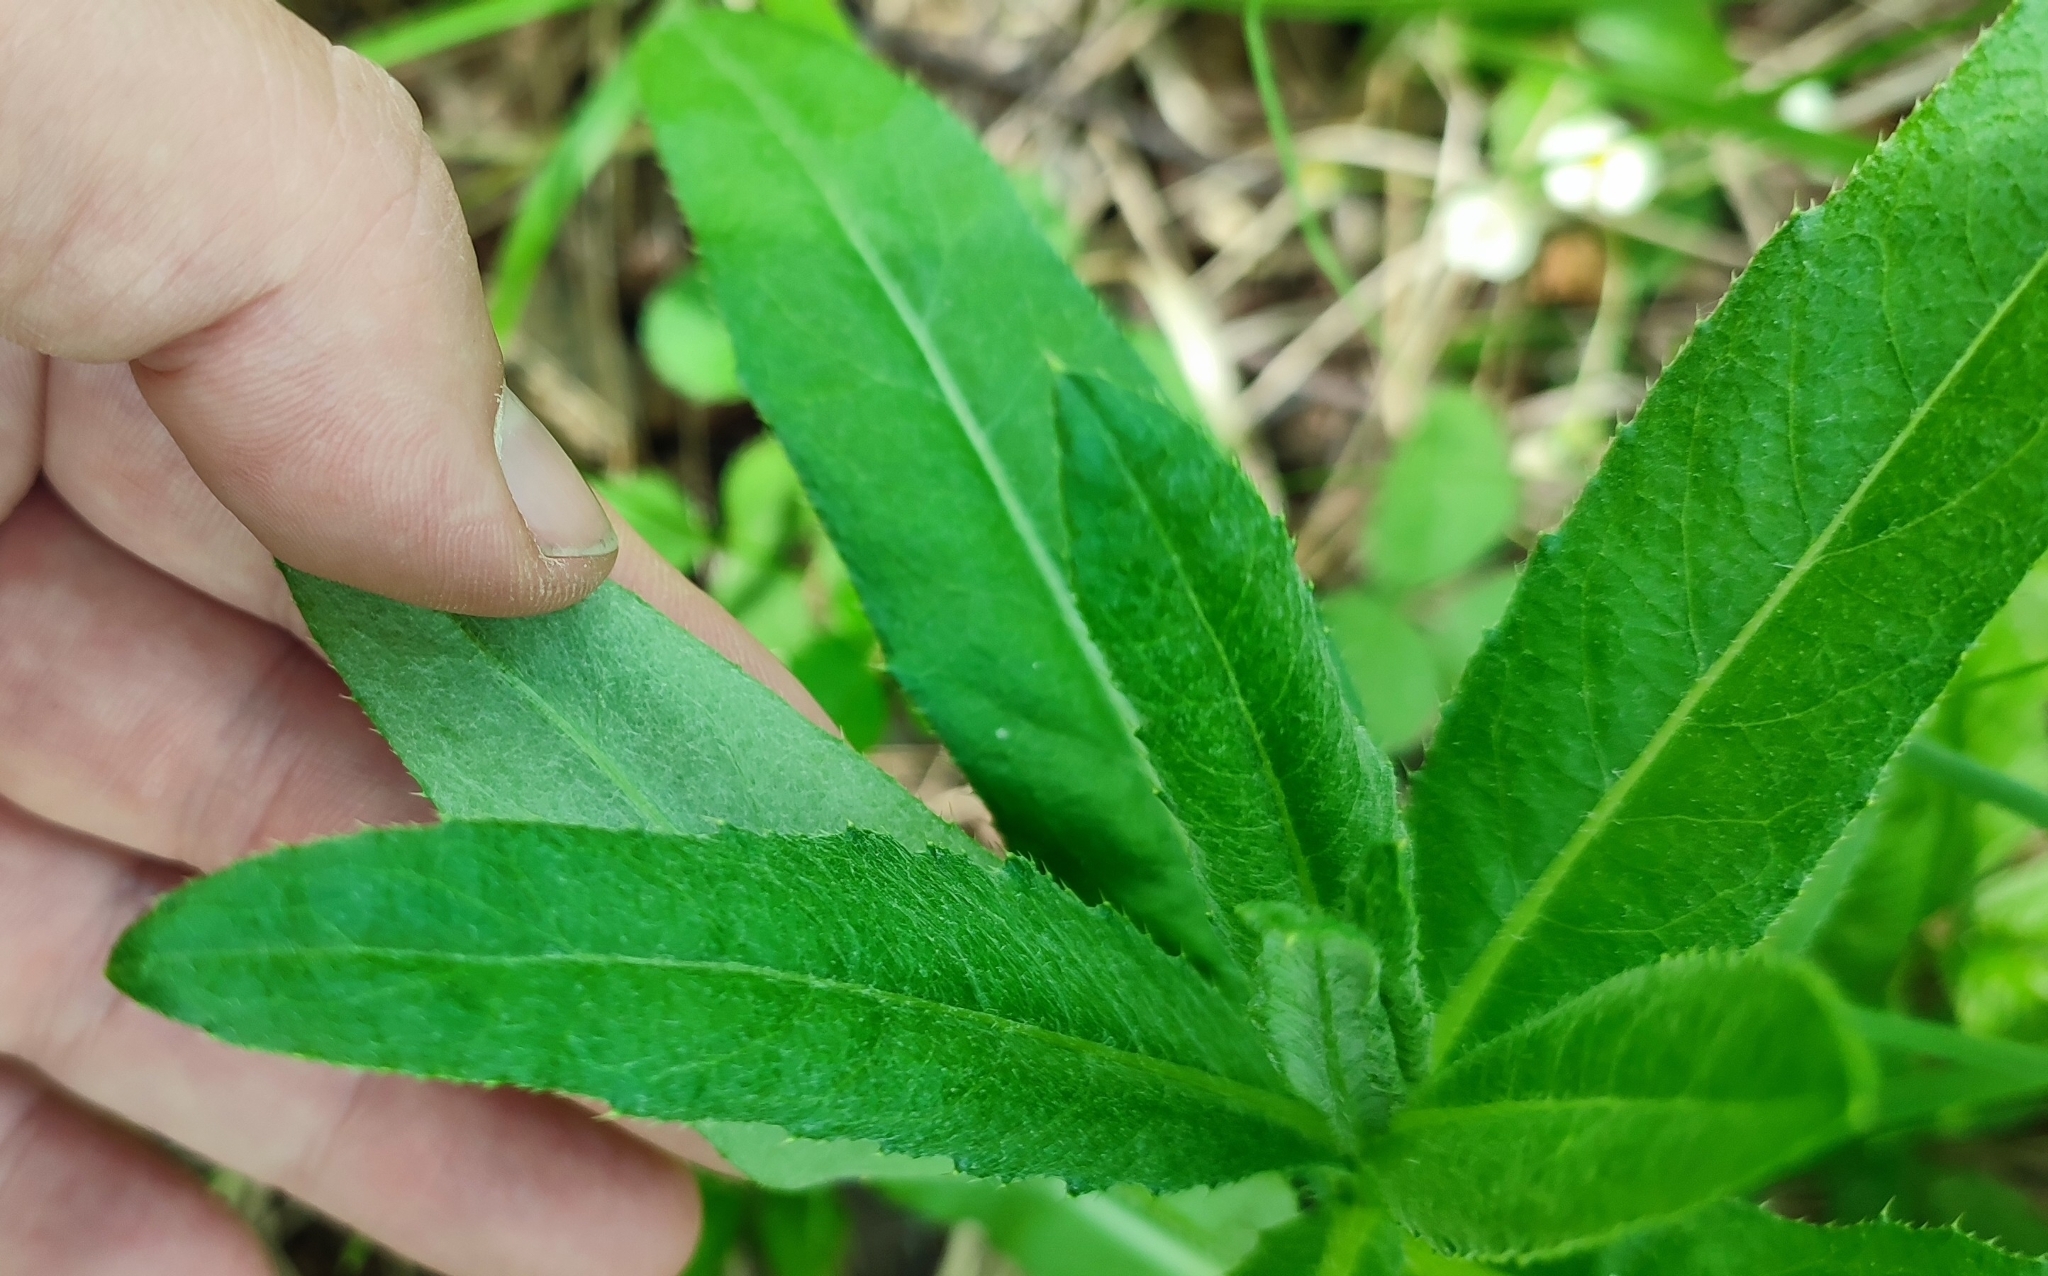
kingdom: Plantae
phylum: Tracheophyta
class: Magnoliopsida
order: Asterales
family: Asteraceae
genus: Cirsium
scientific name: Cirsium arvense
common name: Creeping thistle
